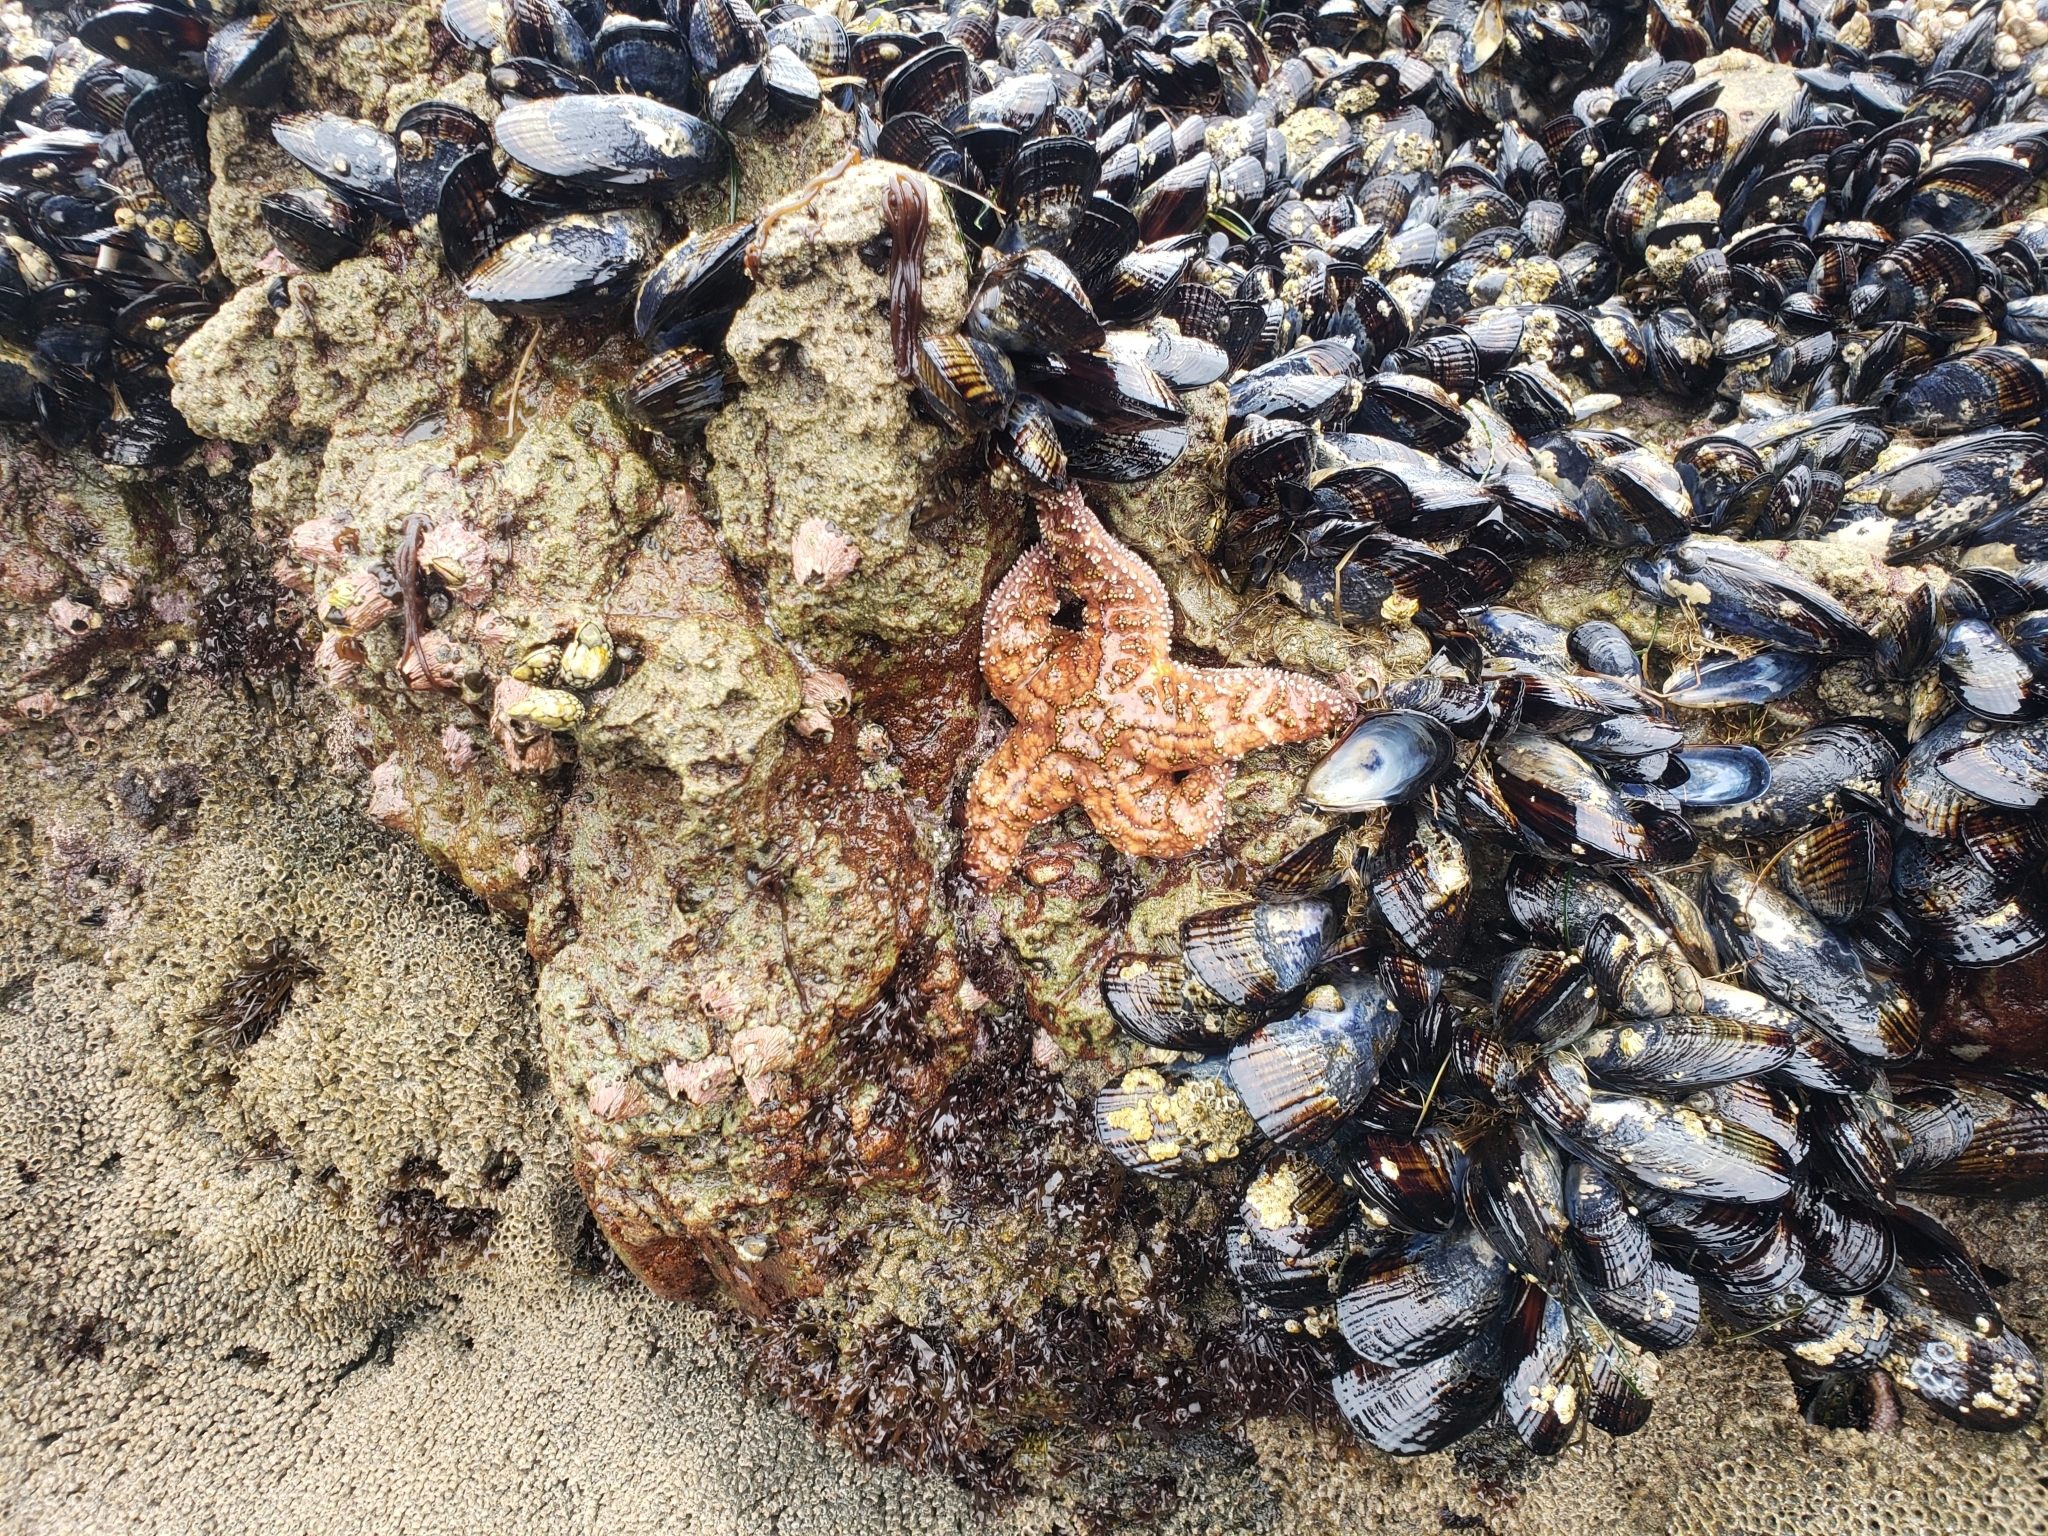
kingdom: Animalia
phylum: Echinodermata
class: Asteroidea
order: Forcipulatida
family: Asteriidae
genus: Pisaster
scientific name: Pisaster ochraceus
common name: Ochre stars
